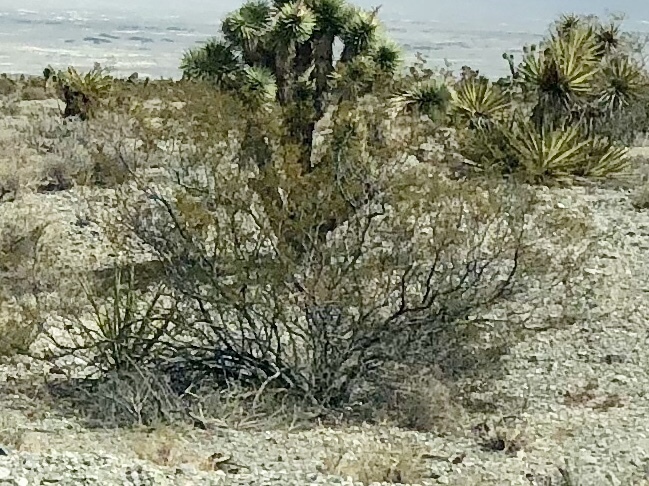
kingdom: Plantae
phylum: Tracheophyta
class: Magnoliopsida
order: Zygophyllales
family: Zygophyllaceae
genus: Larrea
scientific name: Larrea tridentata
